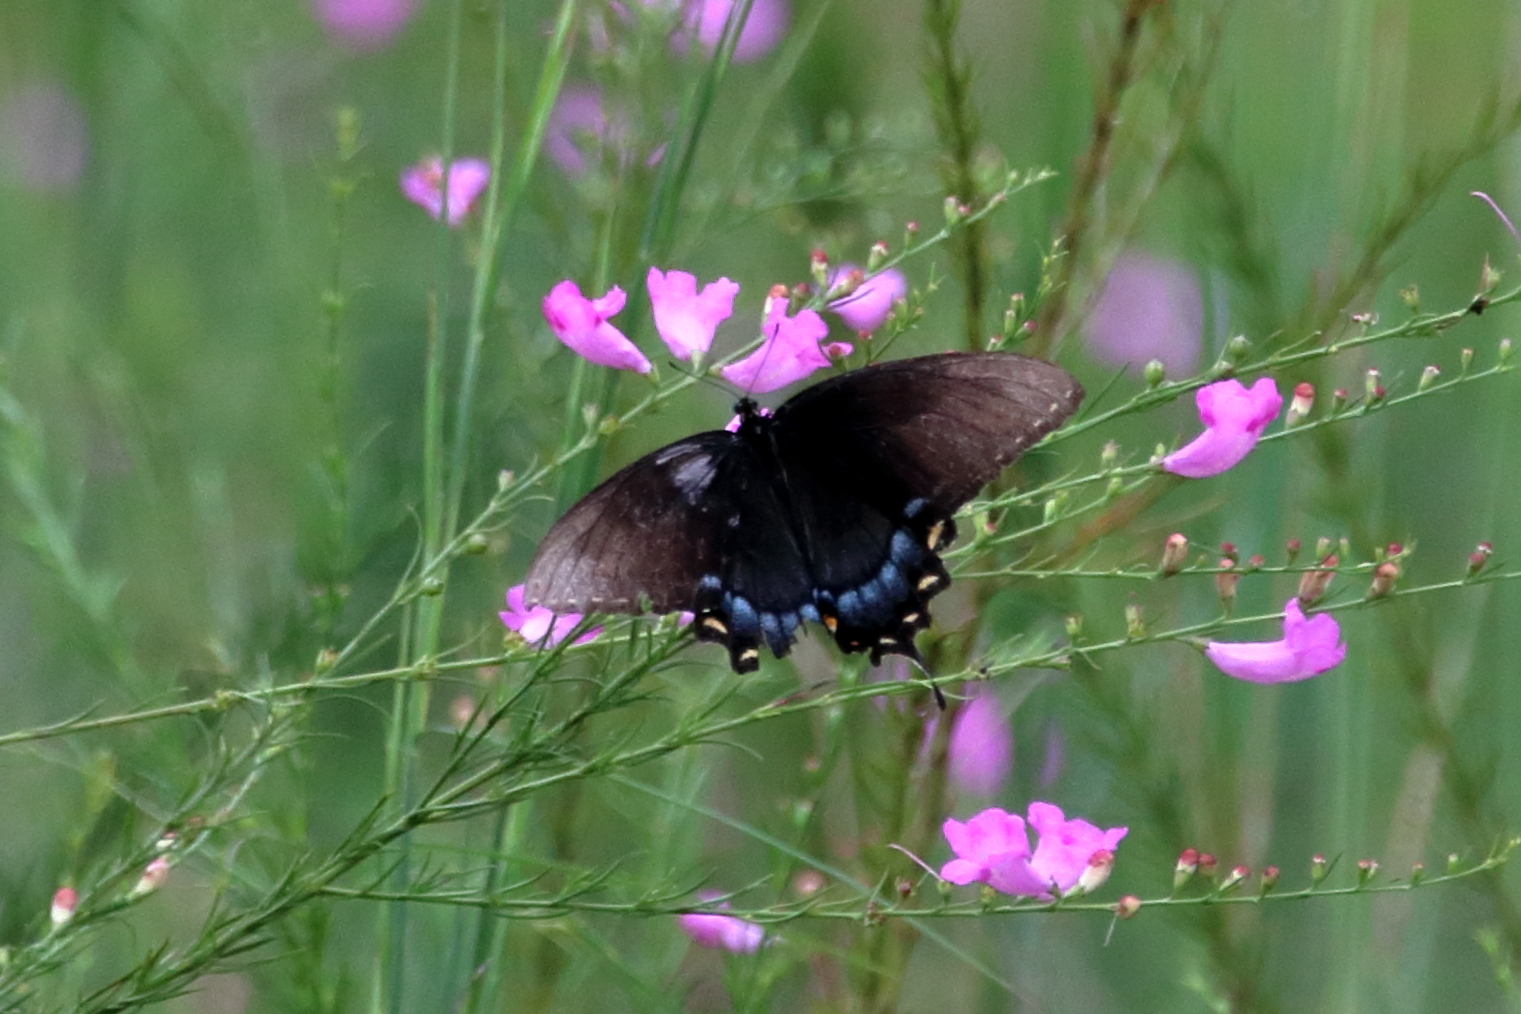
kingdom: Animalia
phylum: Arthropoda
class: Insecta
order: Lepidoptera
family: Papilionidae
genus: Papilio
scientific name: Papilio glaucus
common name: Tiger swallowtail
